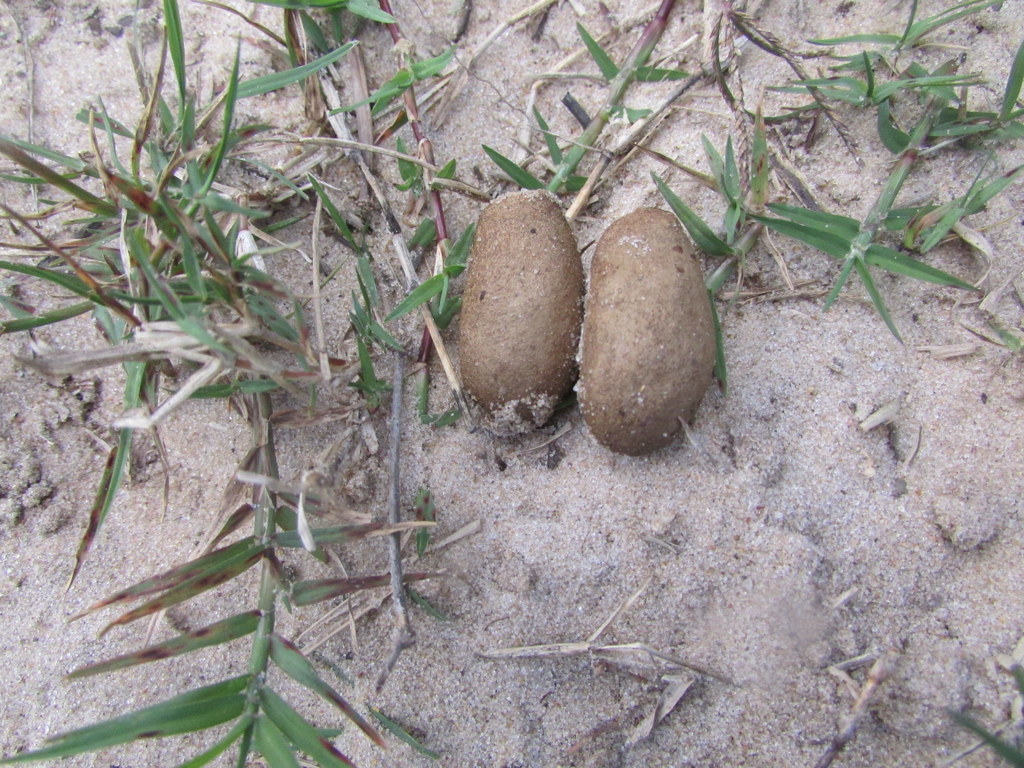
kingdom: Animalia
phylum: Chordata
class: Mammalia
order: Rodentia
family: Caviidae
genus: Hydrochoerus
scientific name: Hydrochoerus hydrochaeris
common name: Capybara
